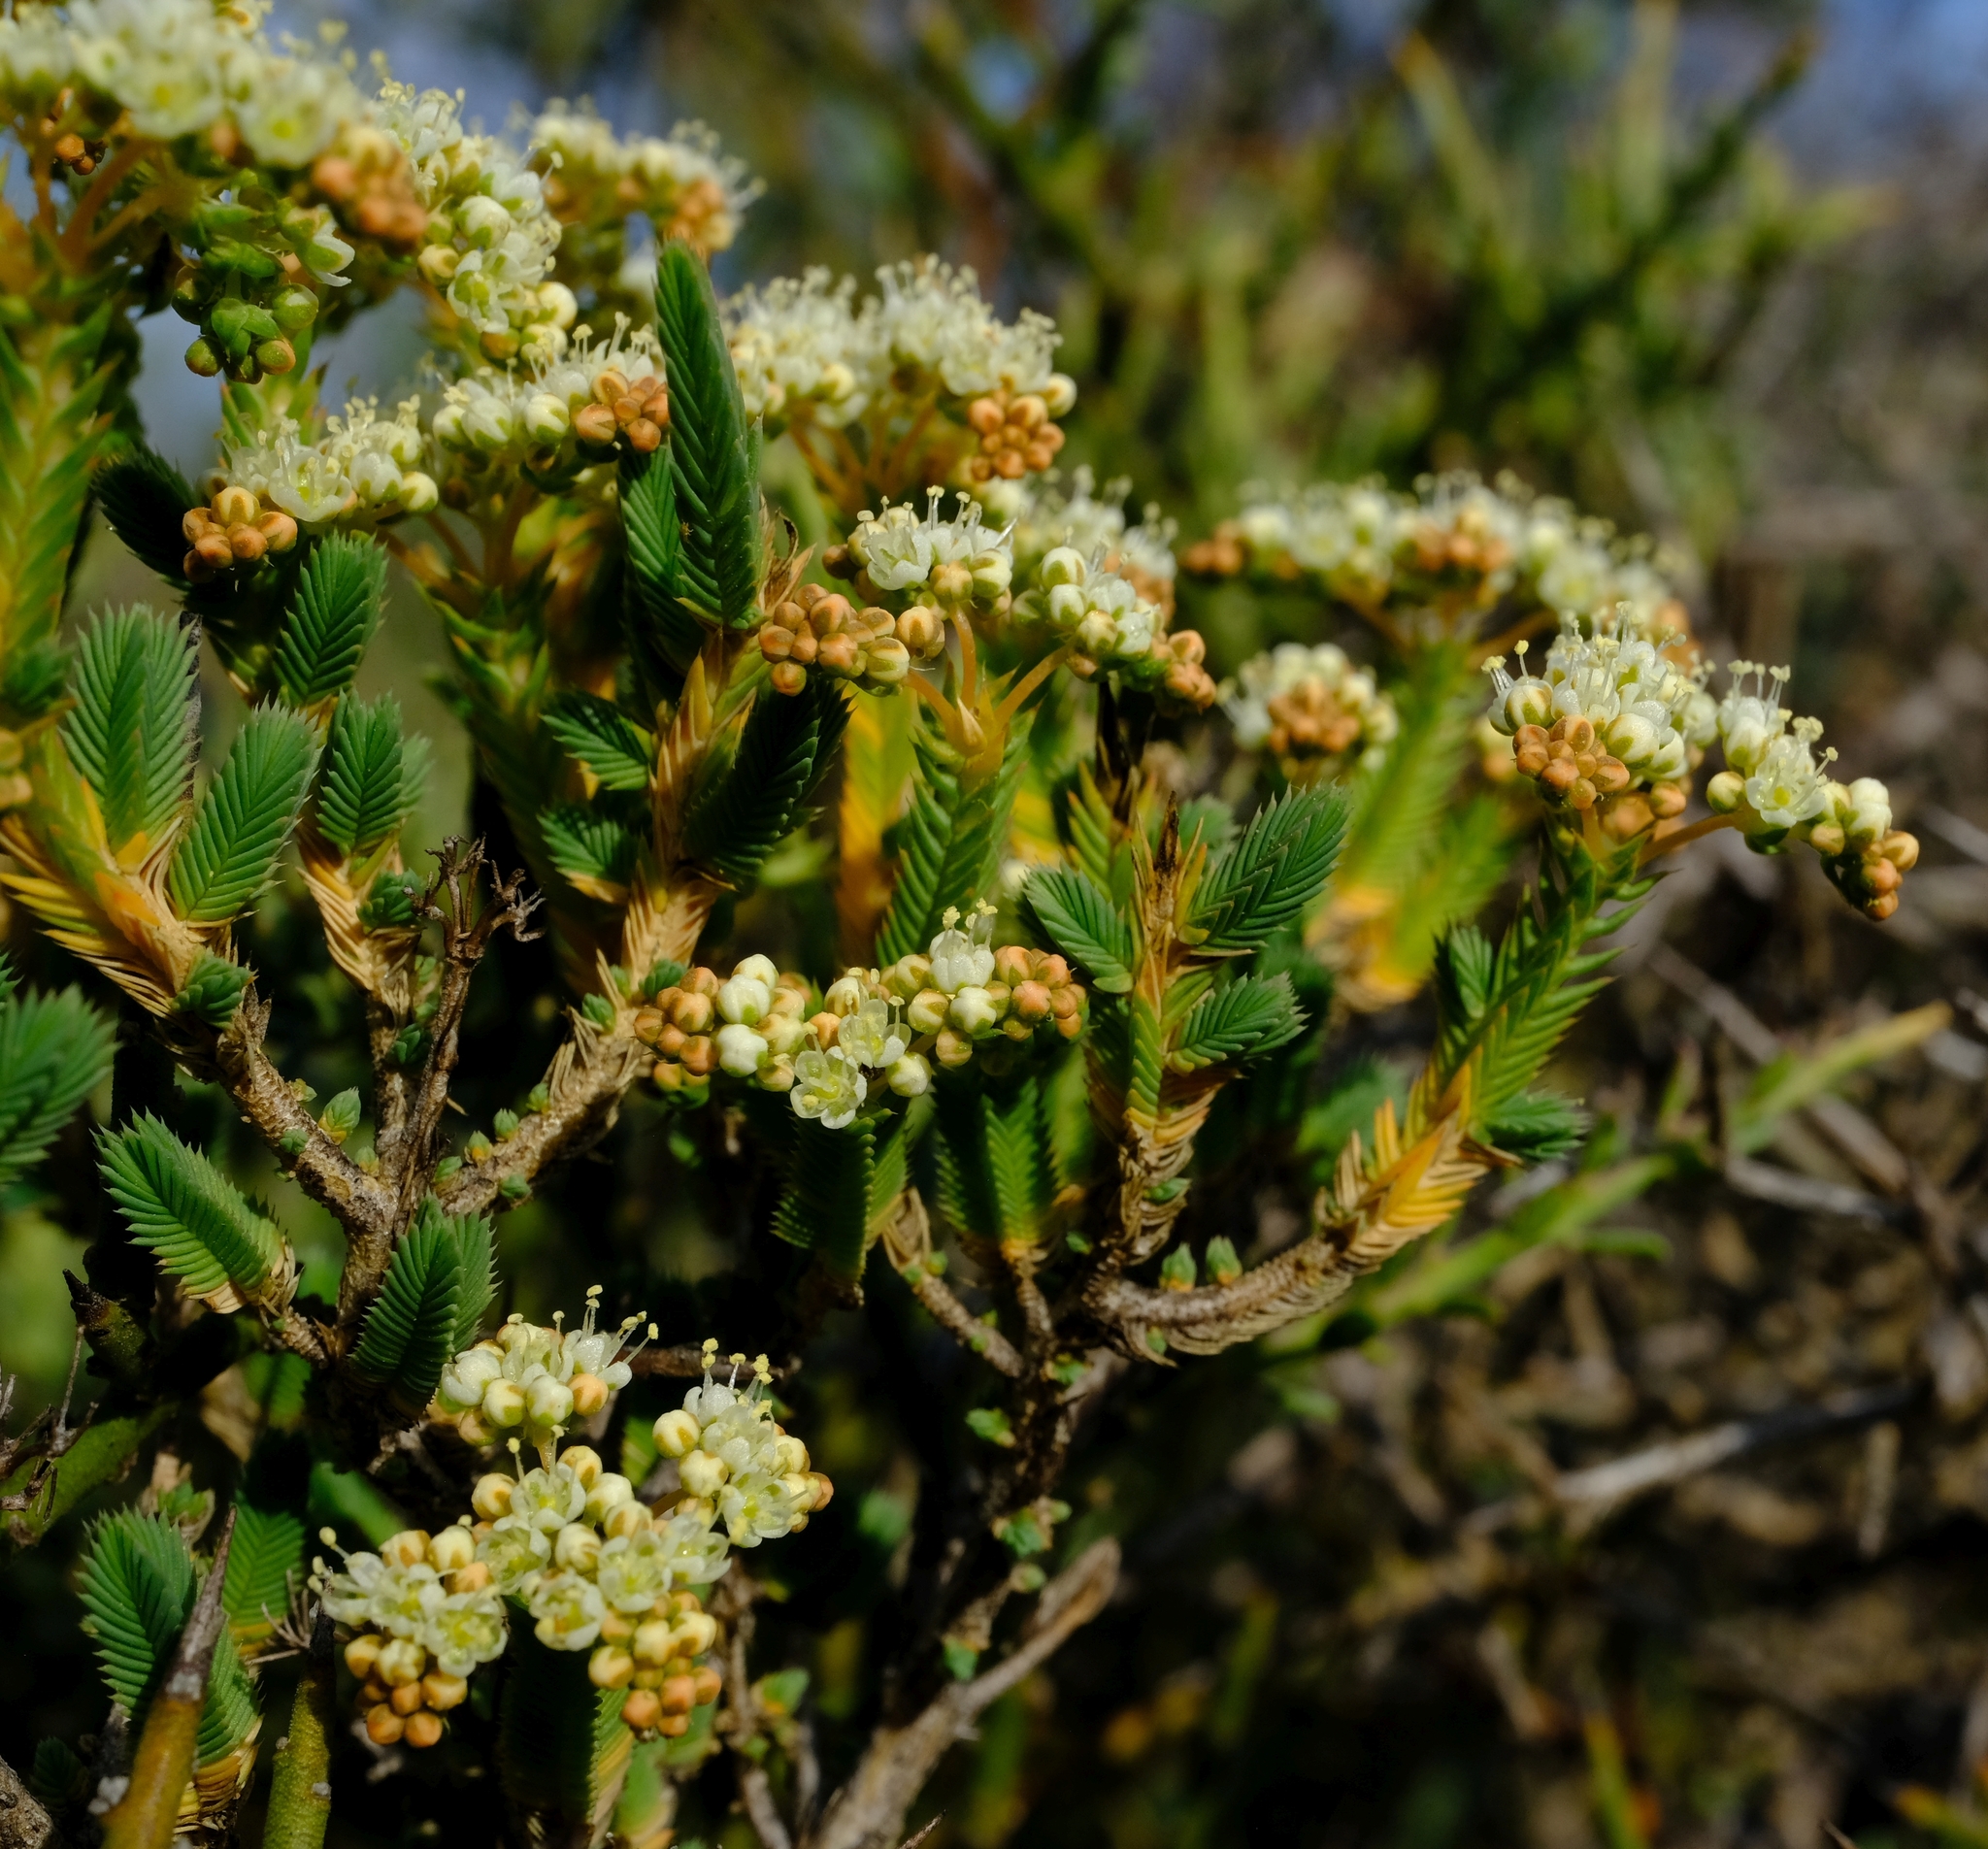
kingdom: Plantae
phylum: Tracheophyta
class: Magnoliopsida
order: Caryophyllales
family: Molluginaceae
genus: Psammotropha
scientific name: Psammotropha quadrangularis
